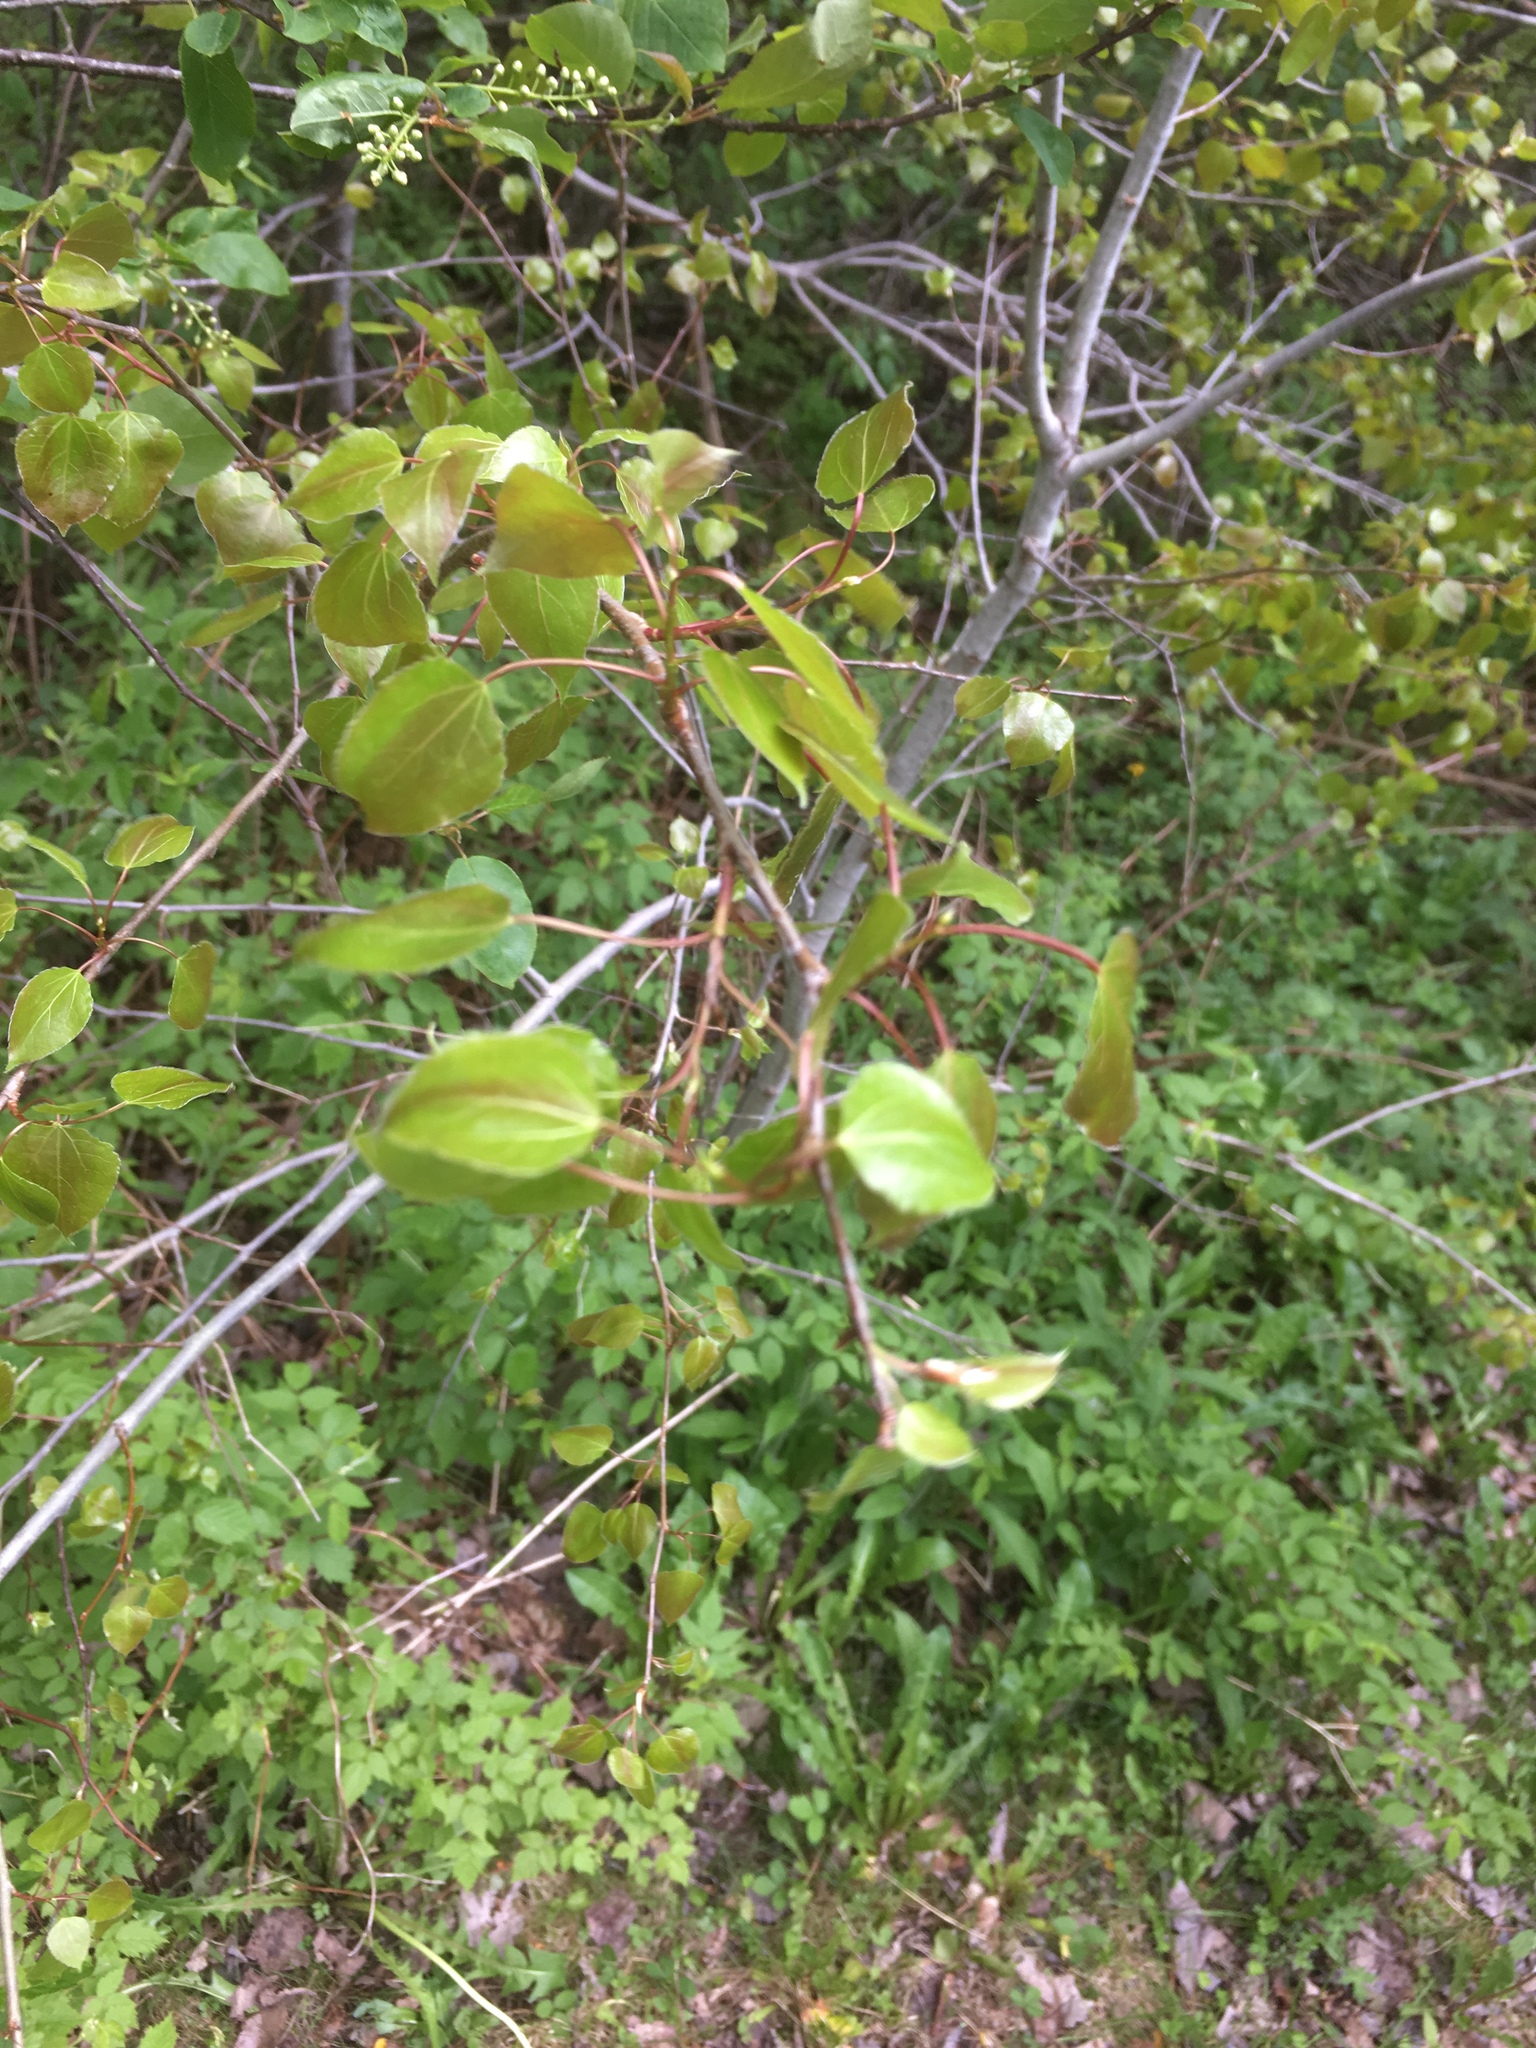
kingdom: Plantae
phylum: Tracheophyta
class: Magnoliopsida
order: Malpighiales
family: Salicaceae
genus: Populus
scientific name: Populus tremuloides
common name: Quaking aspen
